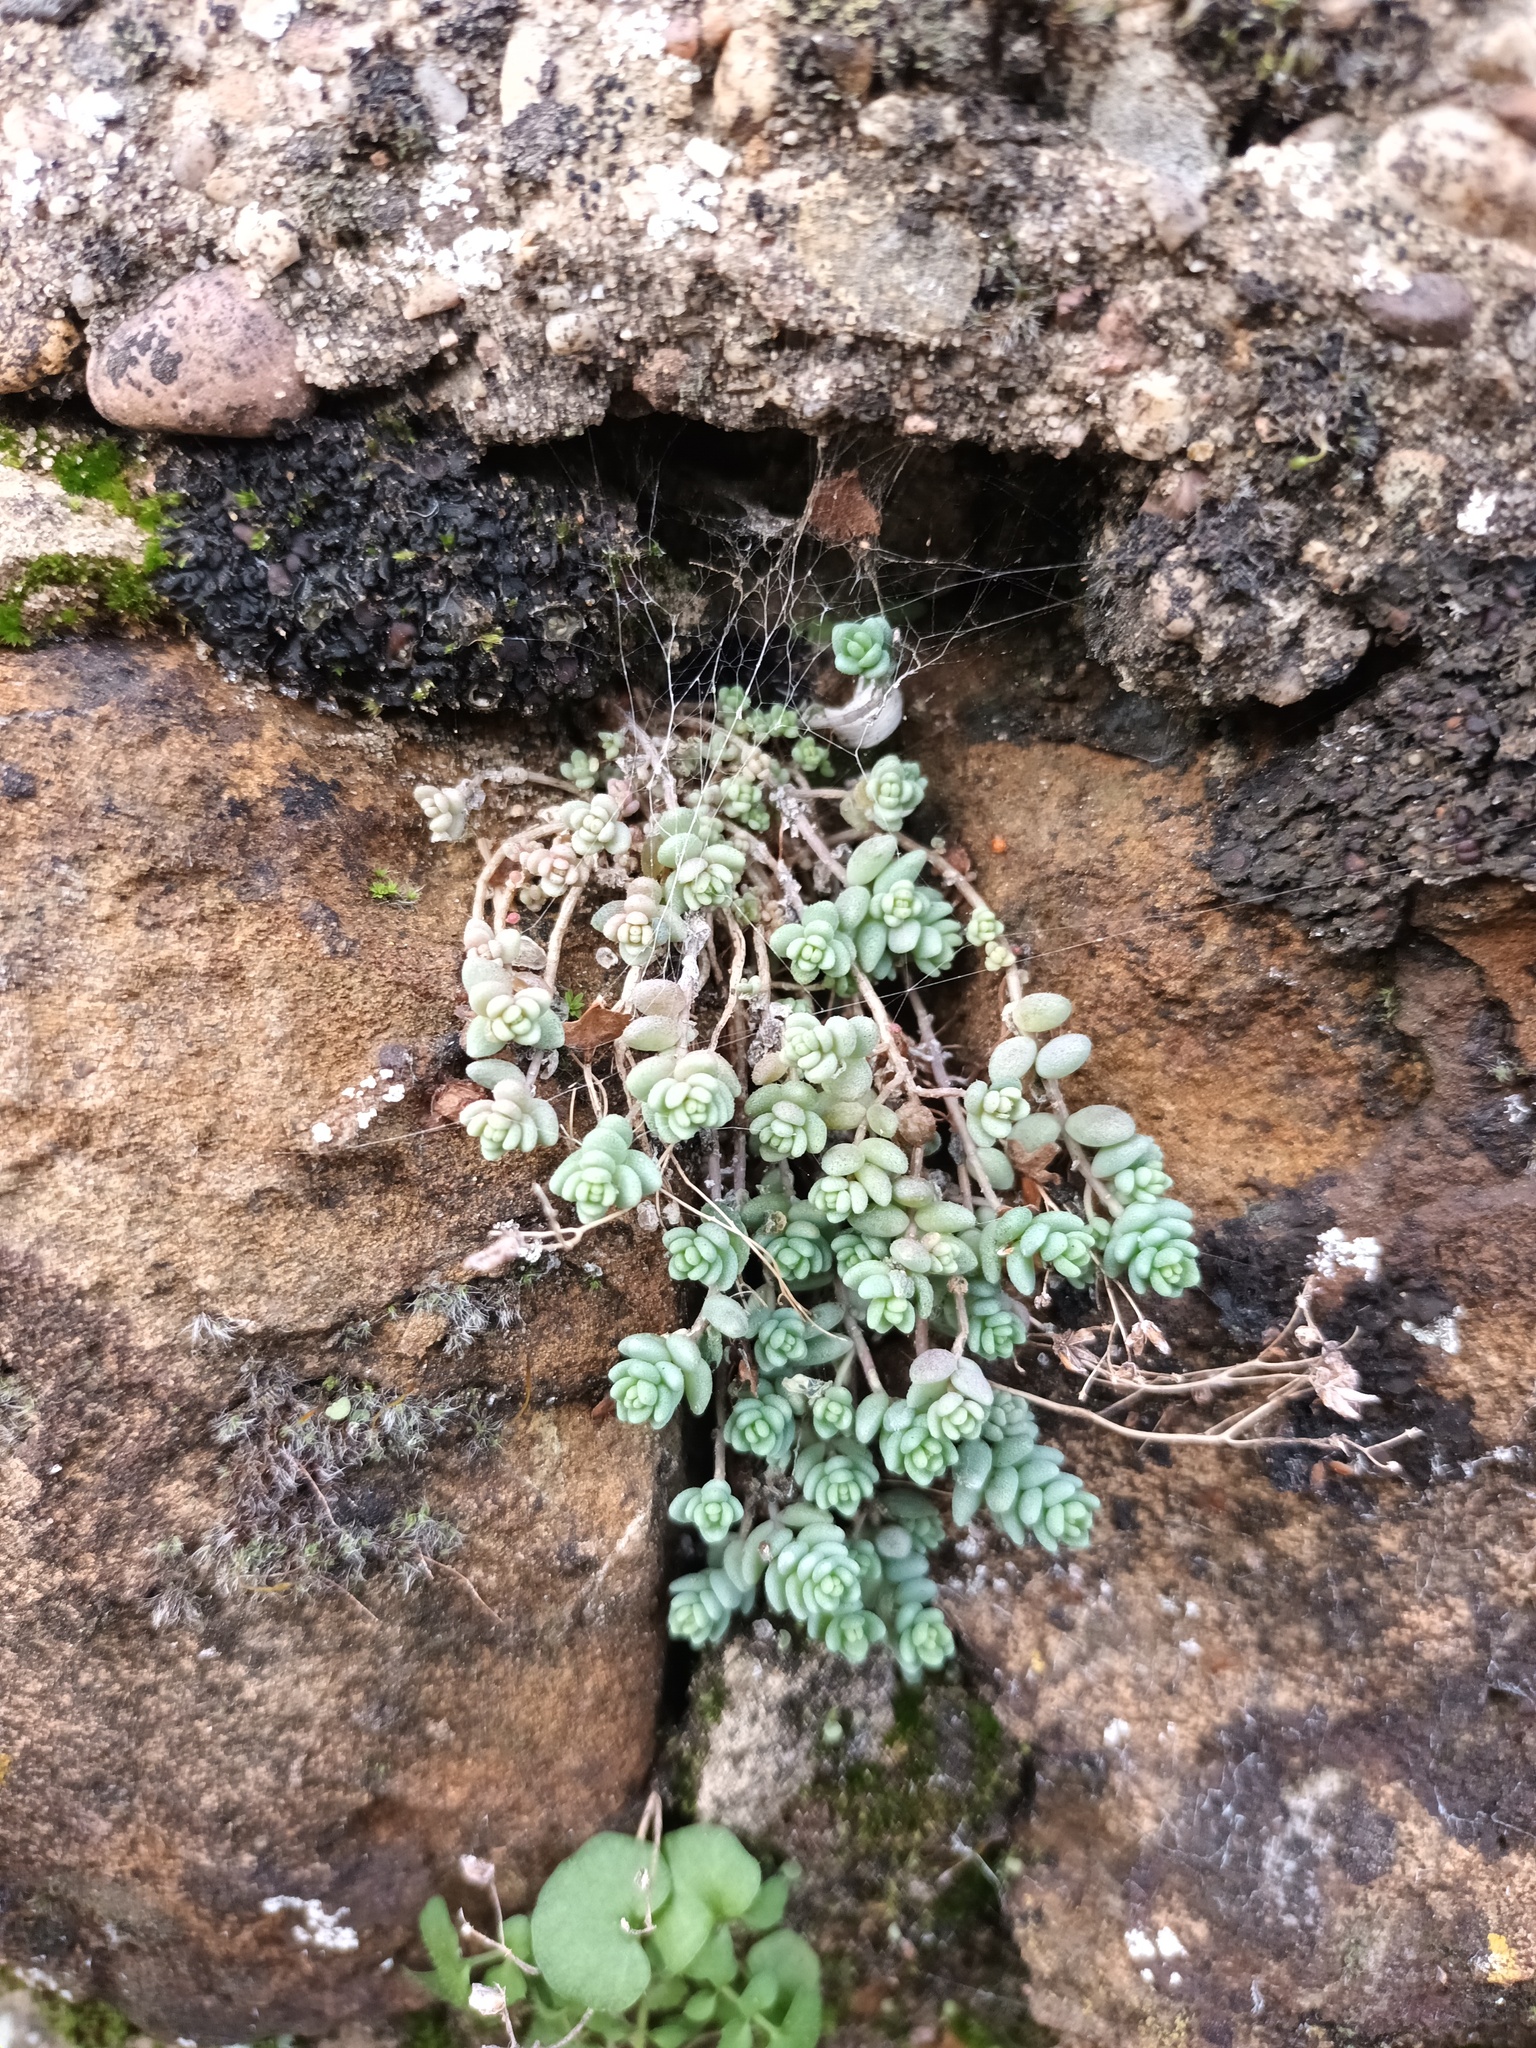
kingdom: Plantae
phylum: Tracheophyta
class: Magnoliopsida
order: Saxifragales
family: Crassulaceae
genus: Sedum
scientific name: Sedum dasyphyllum
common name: Thick-leaf stonecrop
